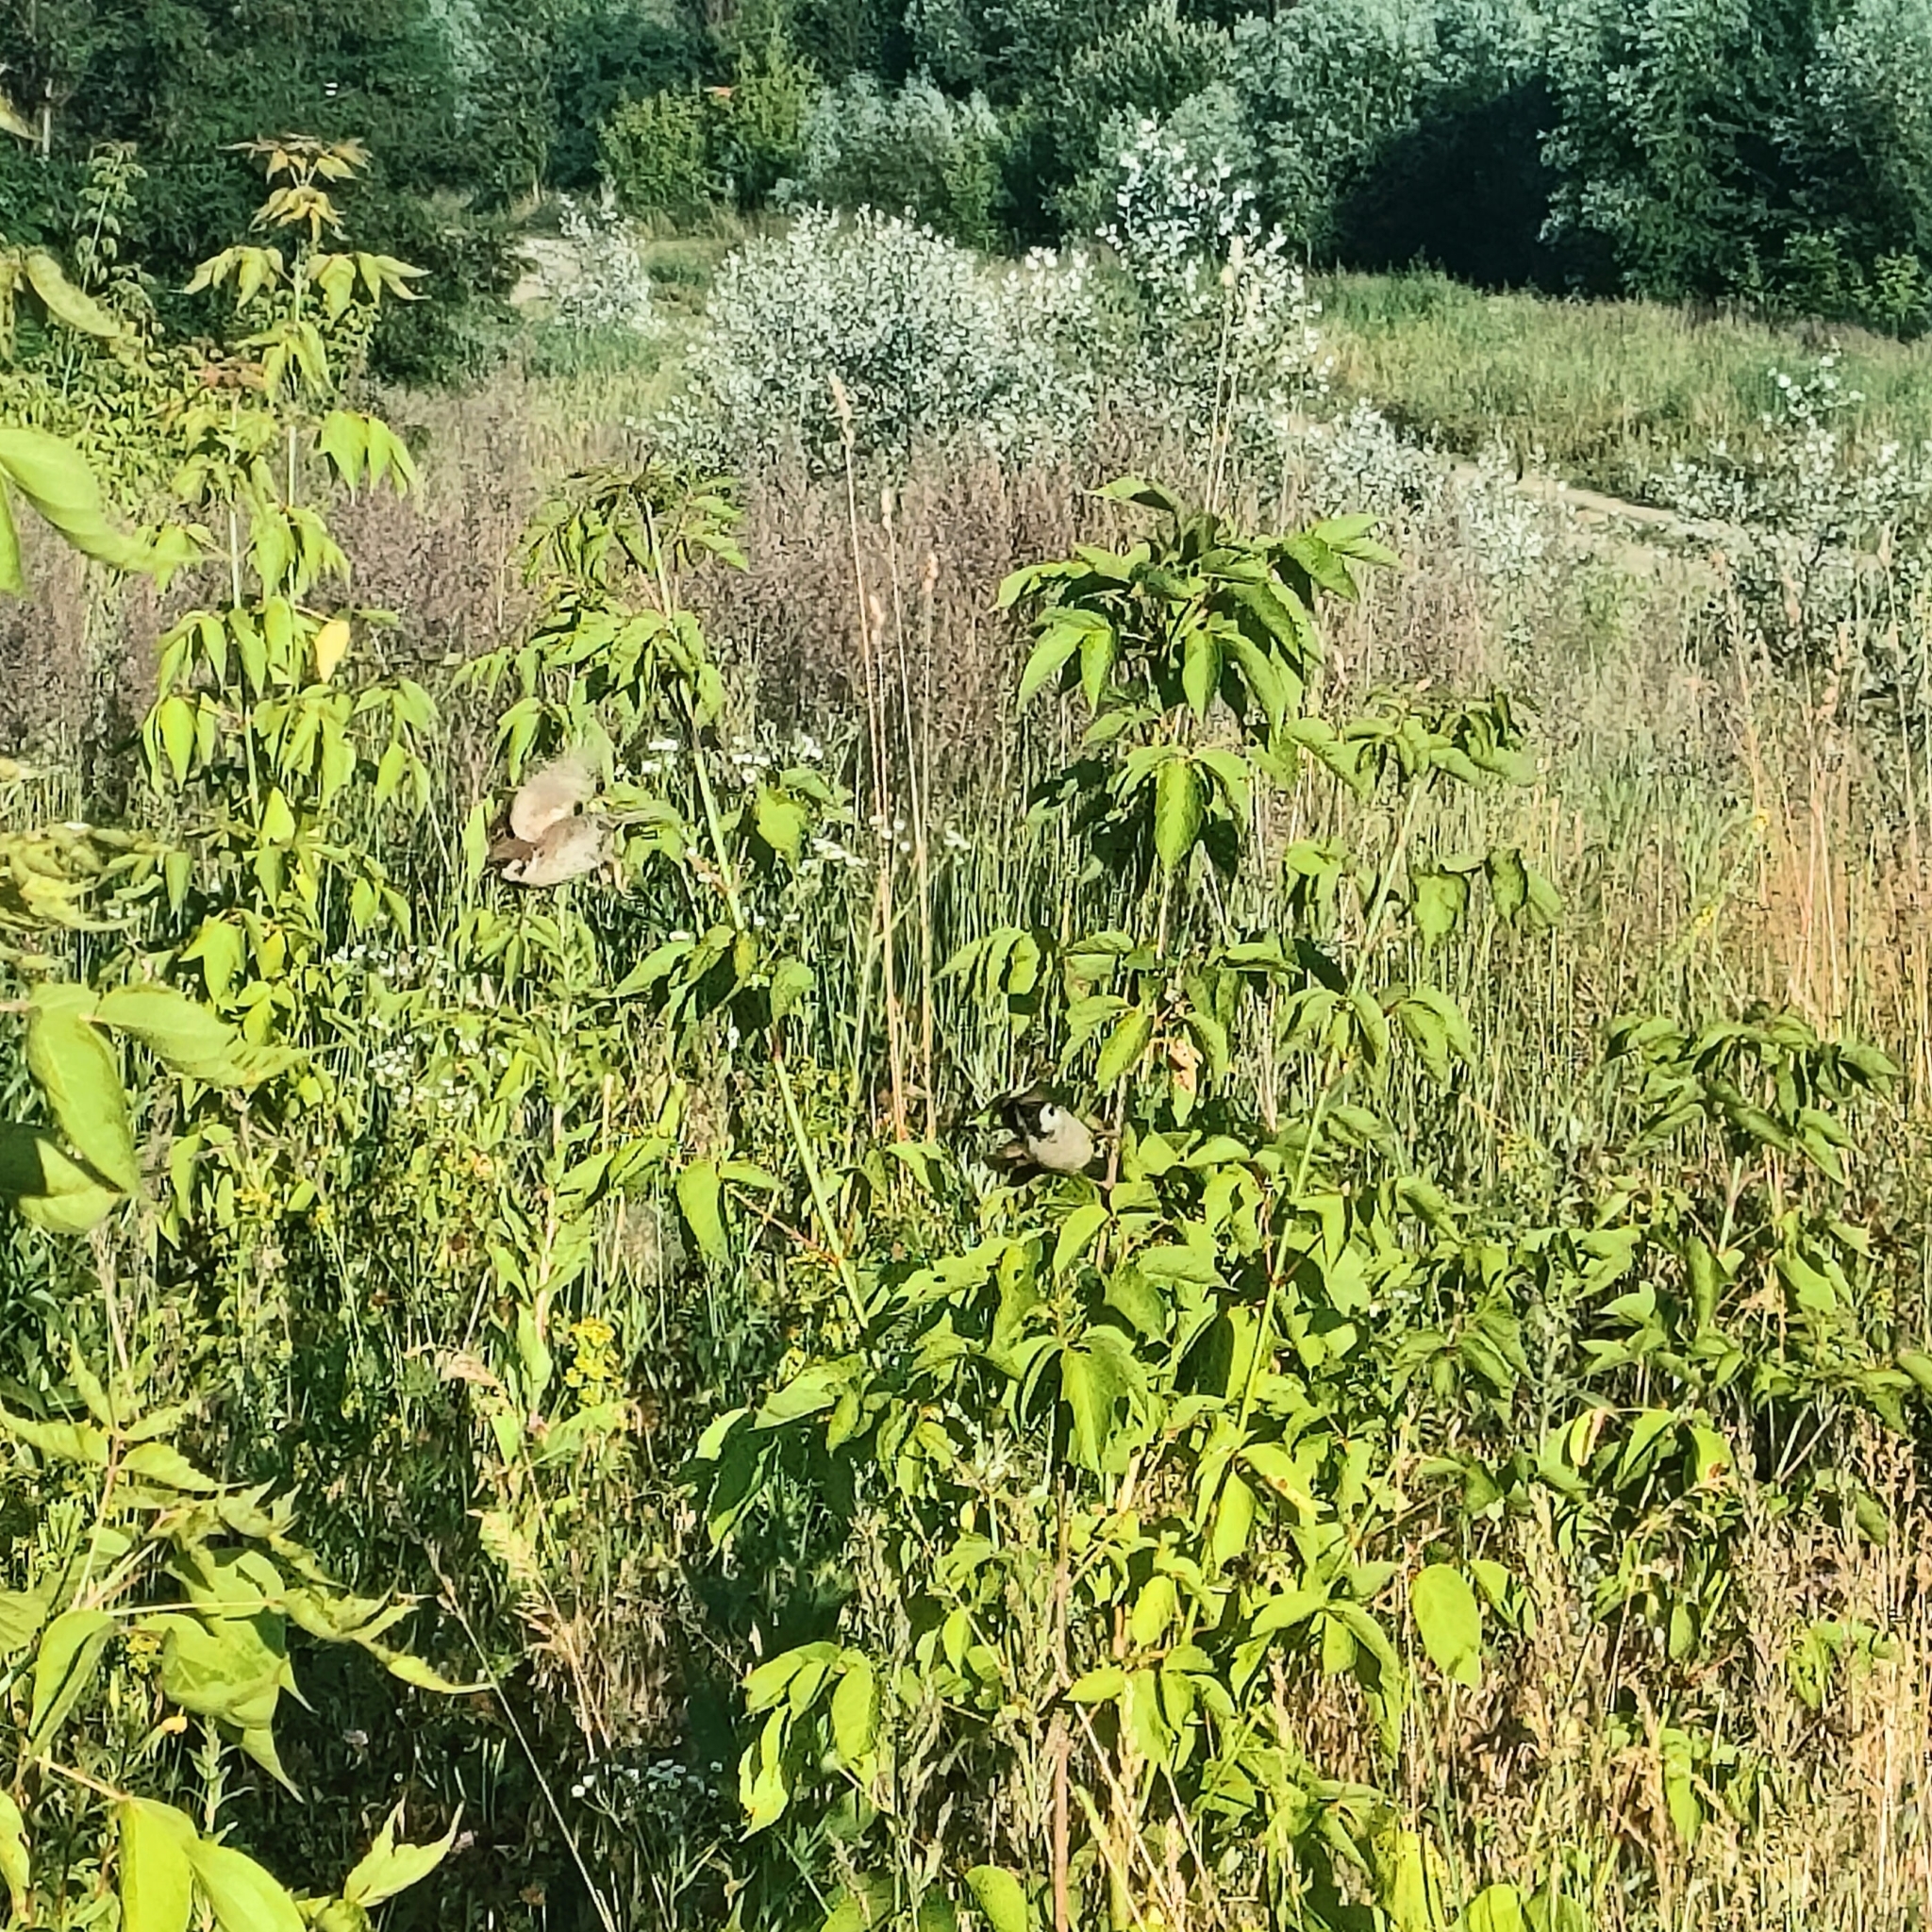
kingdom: Animalia
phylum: Chordata
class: Aves
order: Passeriformes
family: Passeridae
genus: Passer
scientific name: Passer montanus
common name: Eurasian tree sparrow
